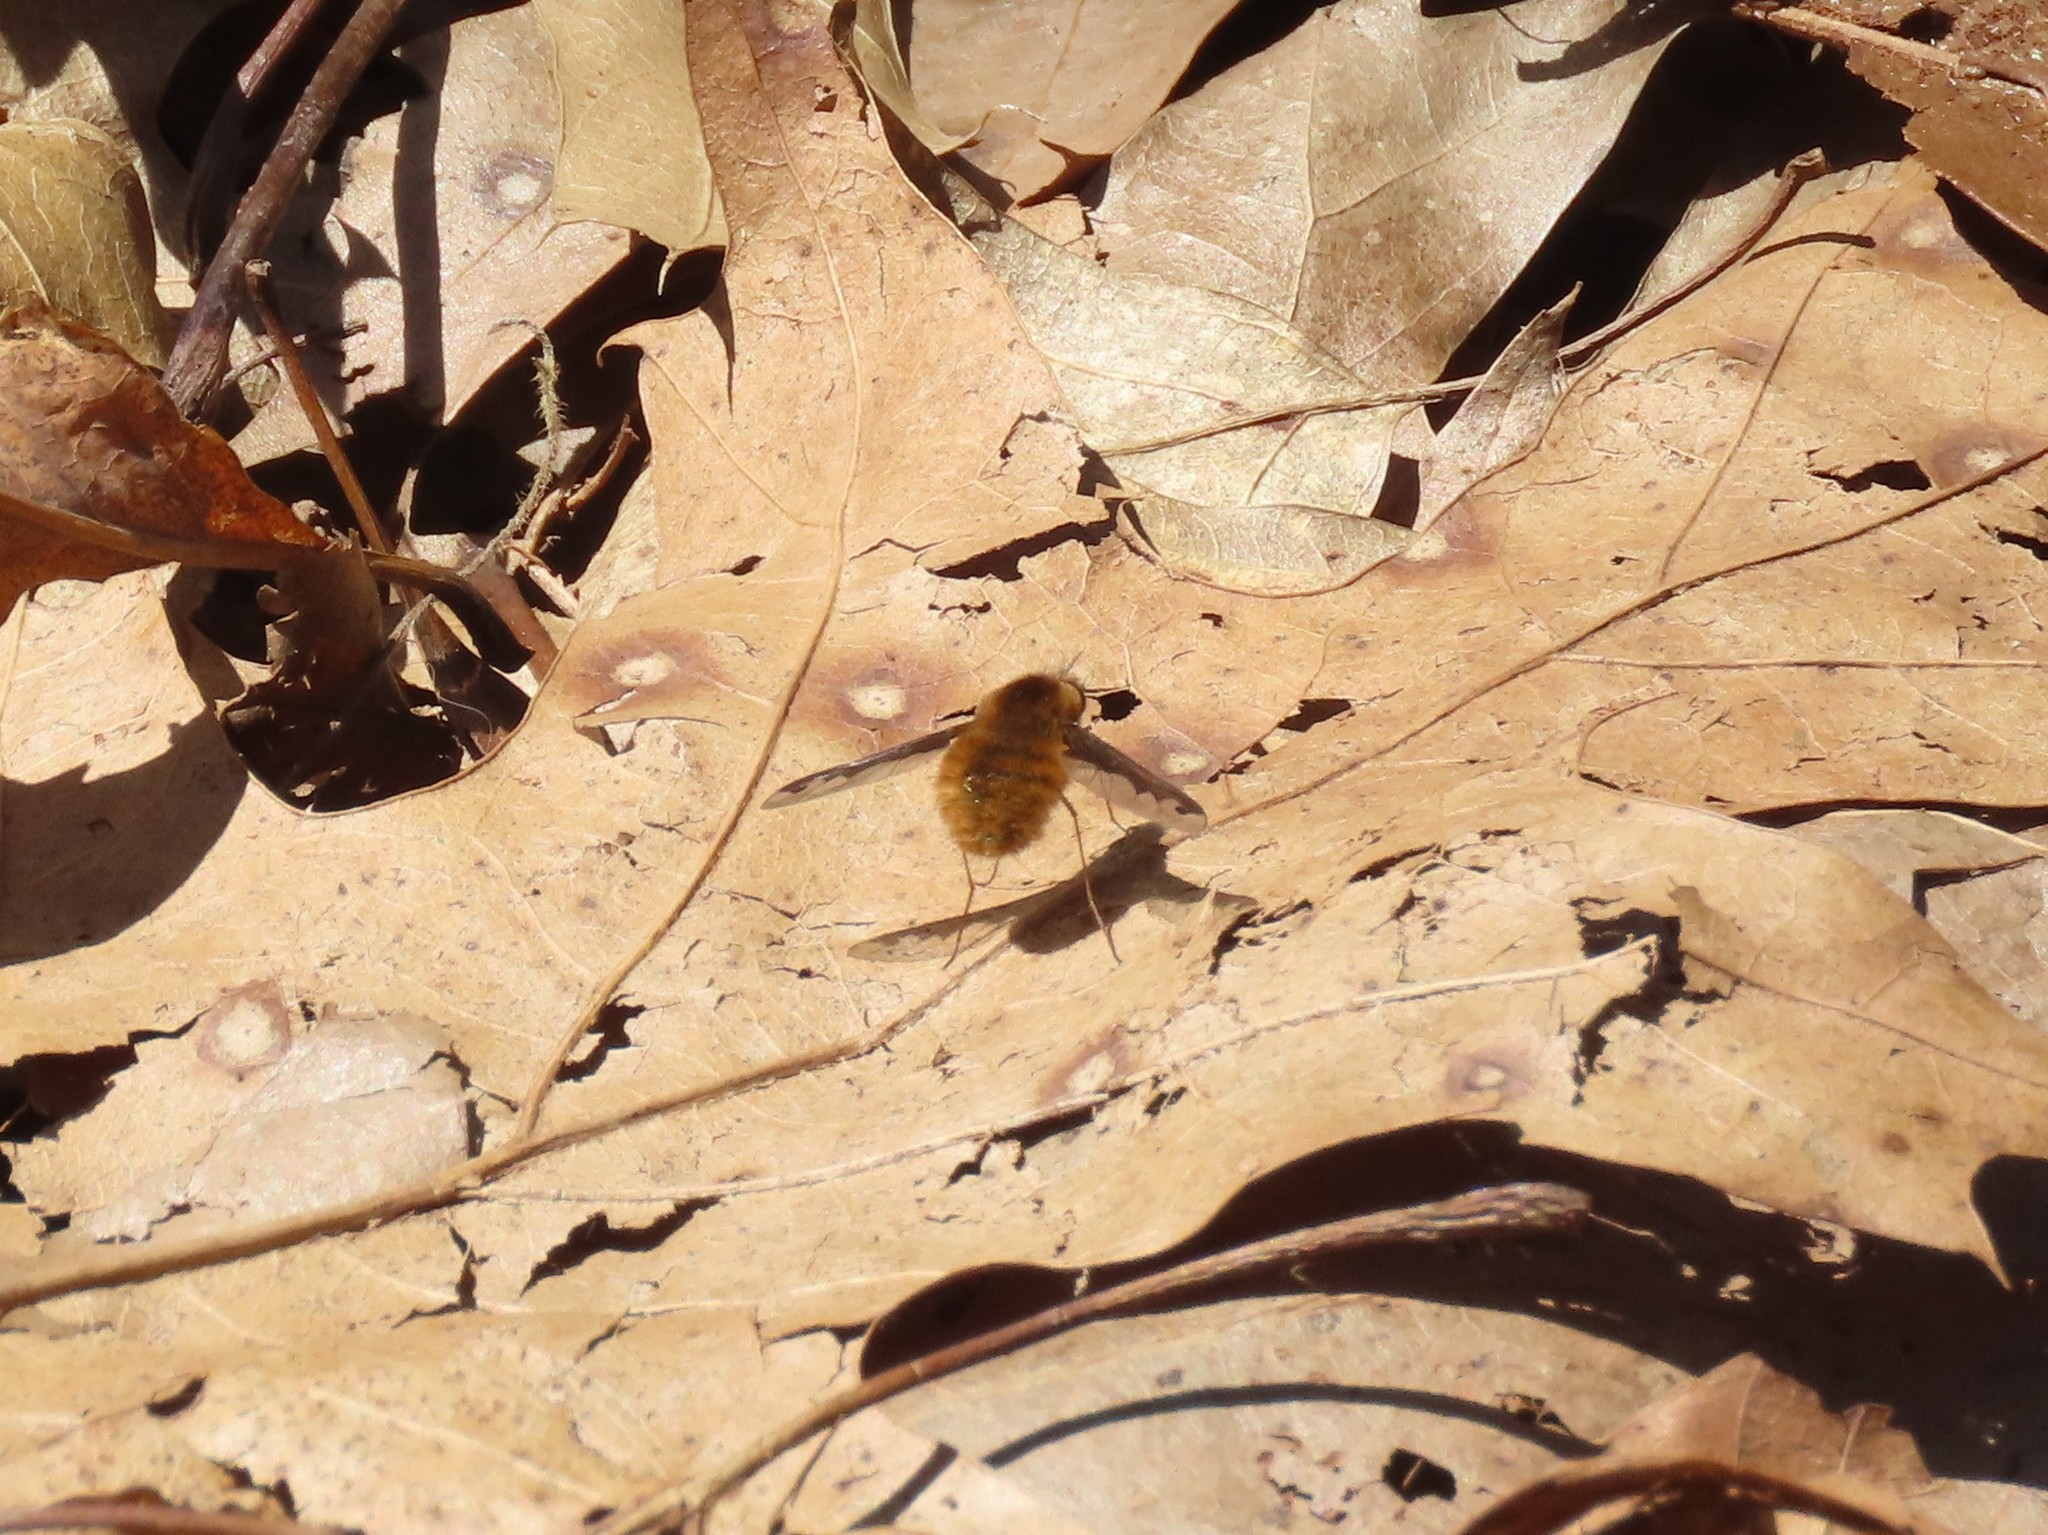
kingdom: Animalia
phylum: Arthropoda
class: Insecta
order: Diptera
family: Bombyliidae
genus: Bombylius
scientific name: Bombylius major
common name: Bee fly
